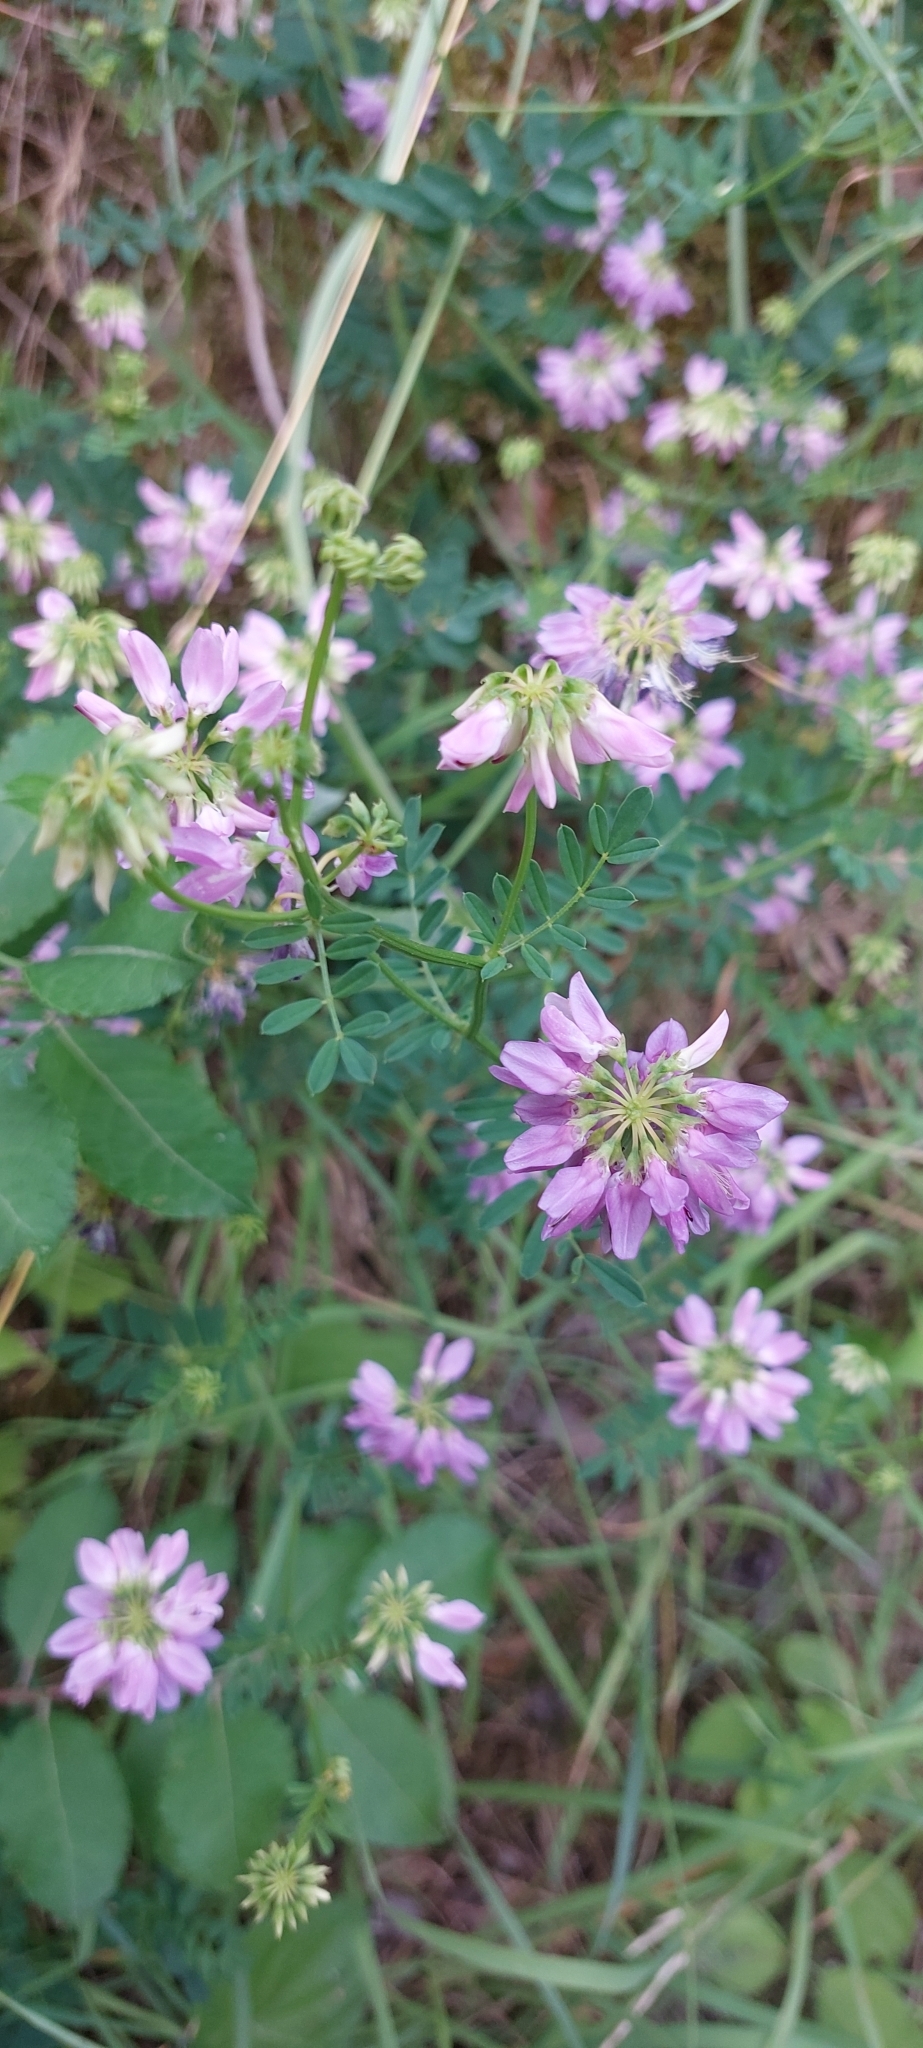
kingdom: Plantae
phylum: Tracheophyta
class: Magnoliopsida
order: Fabales
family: Fabaceae
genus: Coronilla
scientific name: Coronilla varia
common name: Crownvetch
